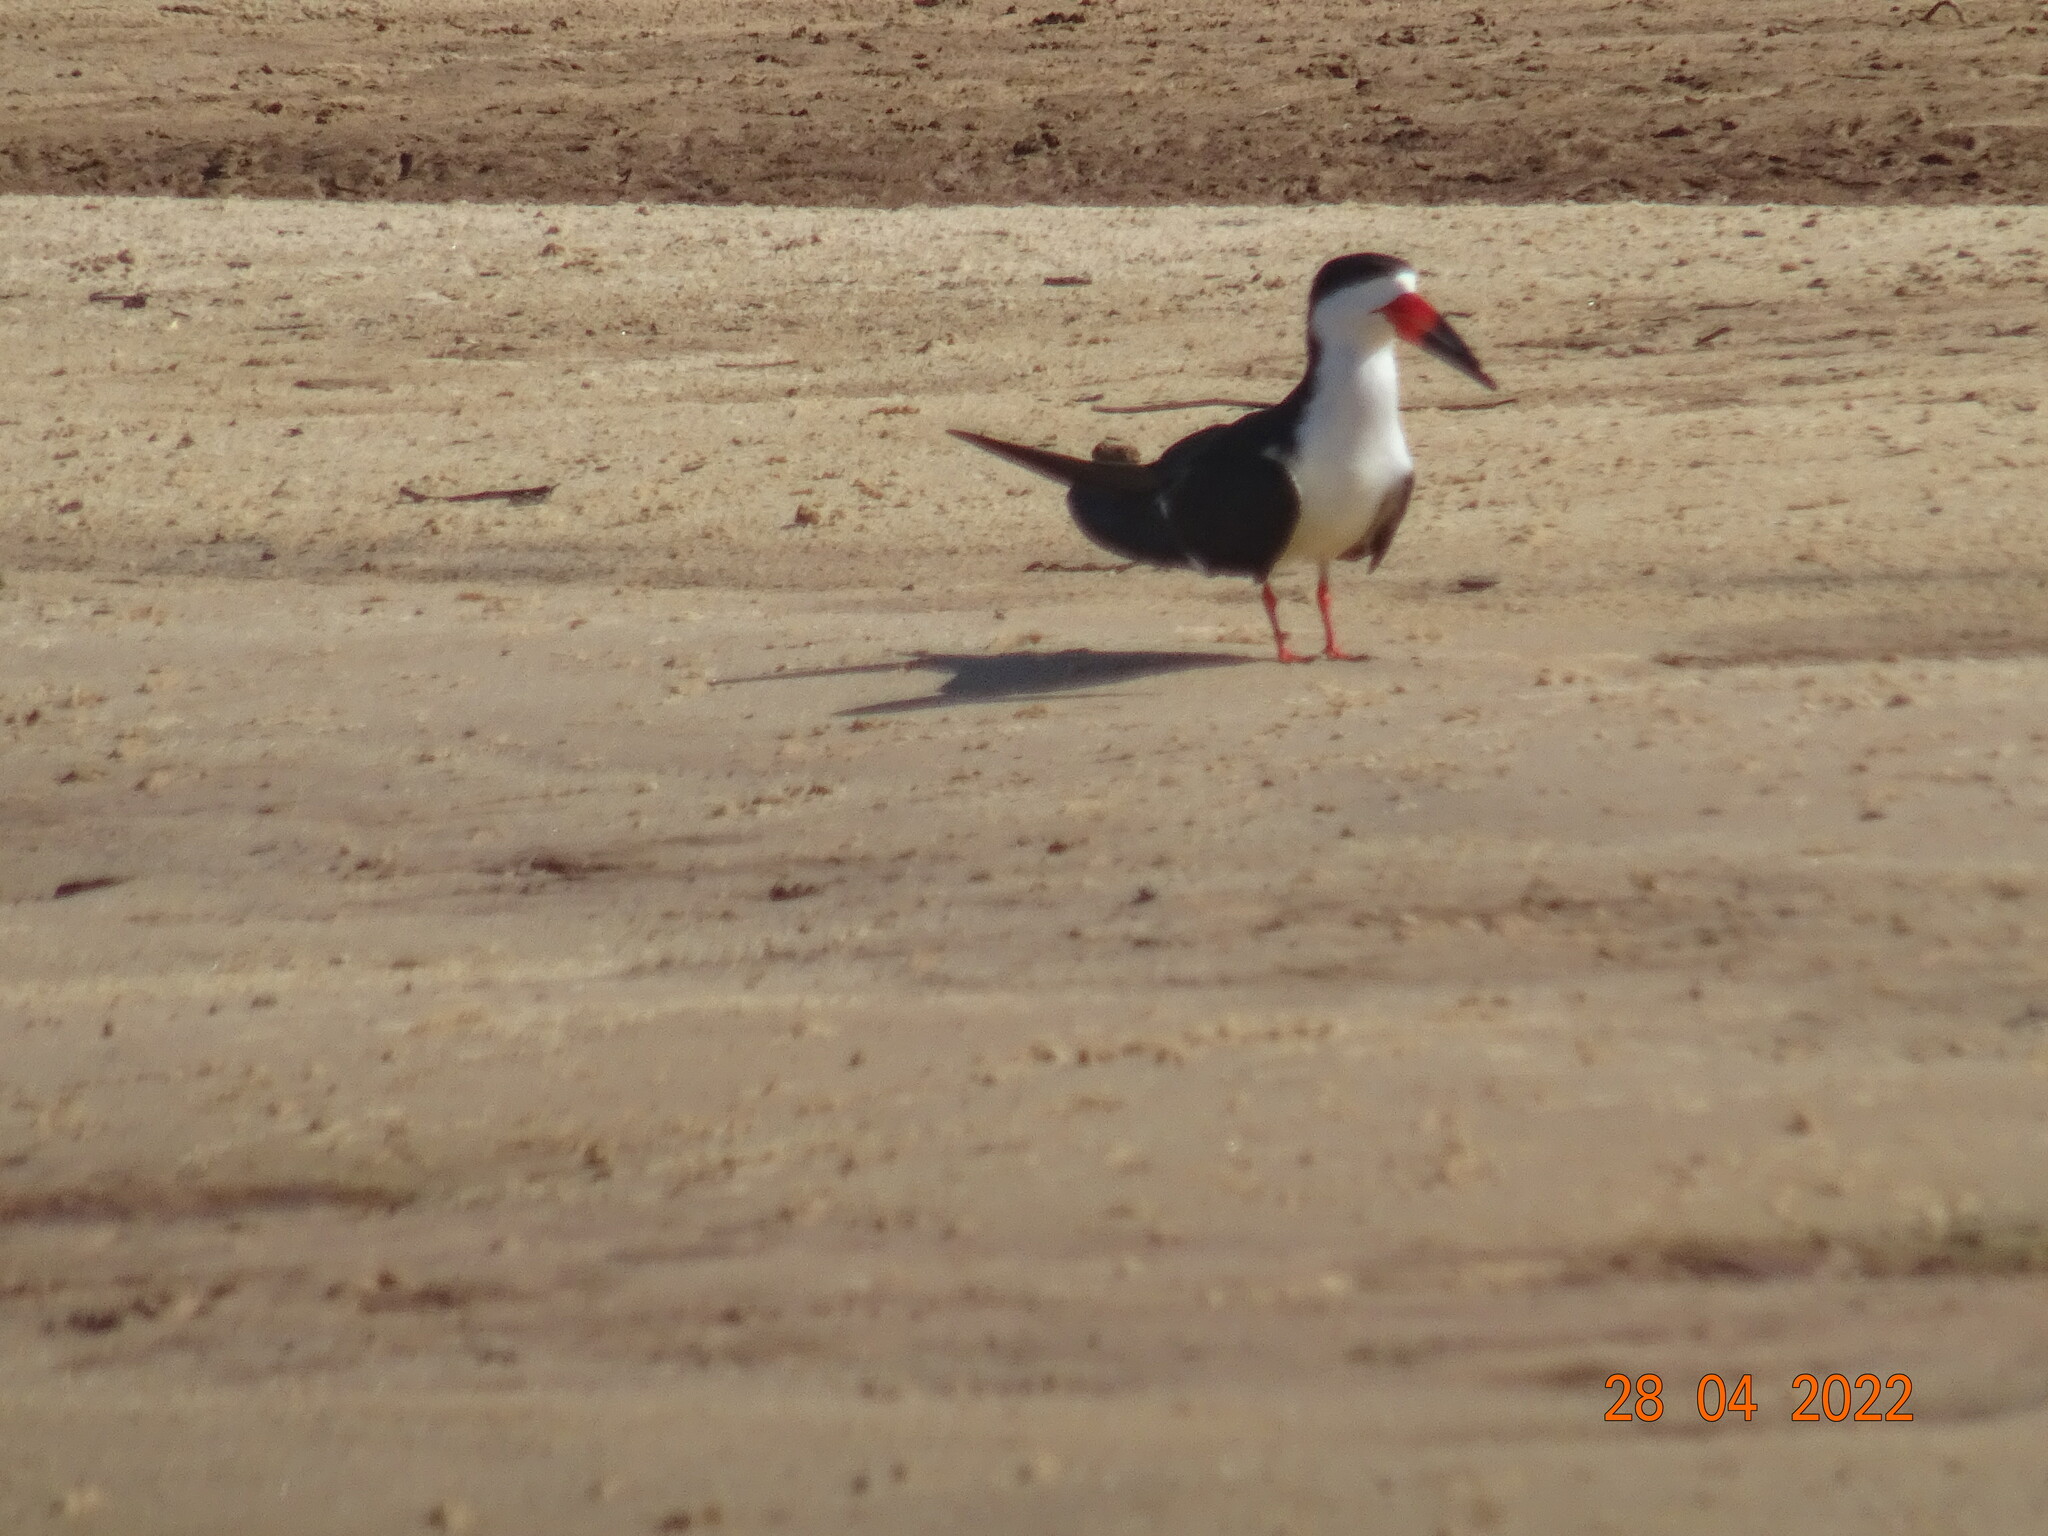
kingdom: Animalia
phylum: Chordata
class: Aves
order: Charadriiformes
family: Laridae
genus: Rynchops
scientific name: Rynchops niger
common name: Black skimmer
